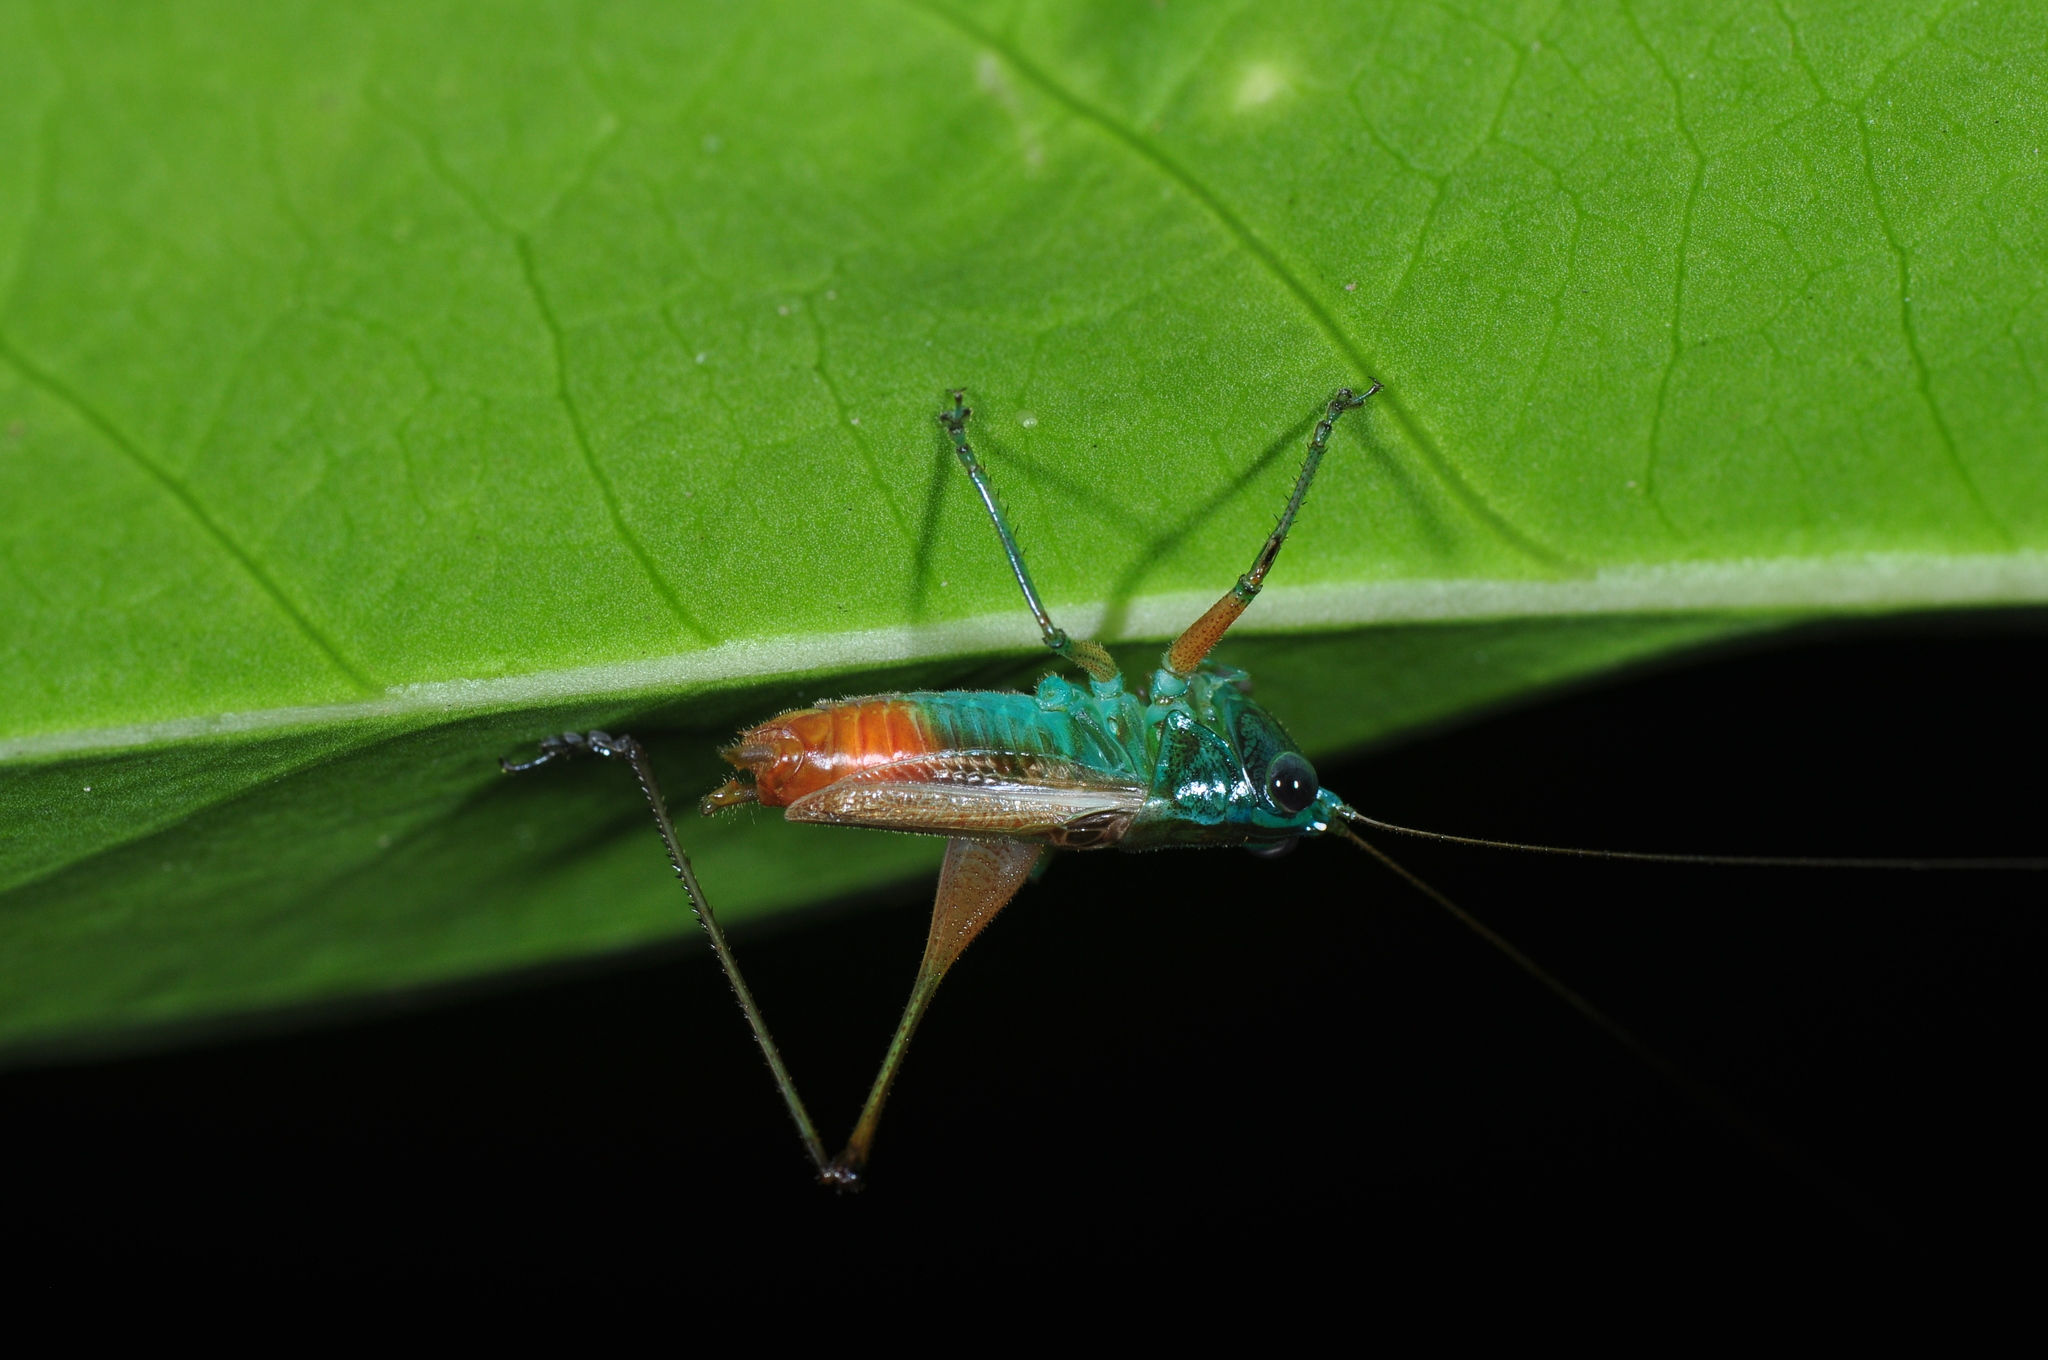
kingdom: Animalia
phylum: Arthropoda
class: Insecta
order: Orthoptera
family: Tettigoniidae
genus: Conocephalus
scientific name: Conocephalus angustifrons
